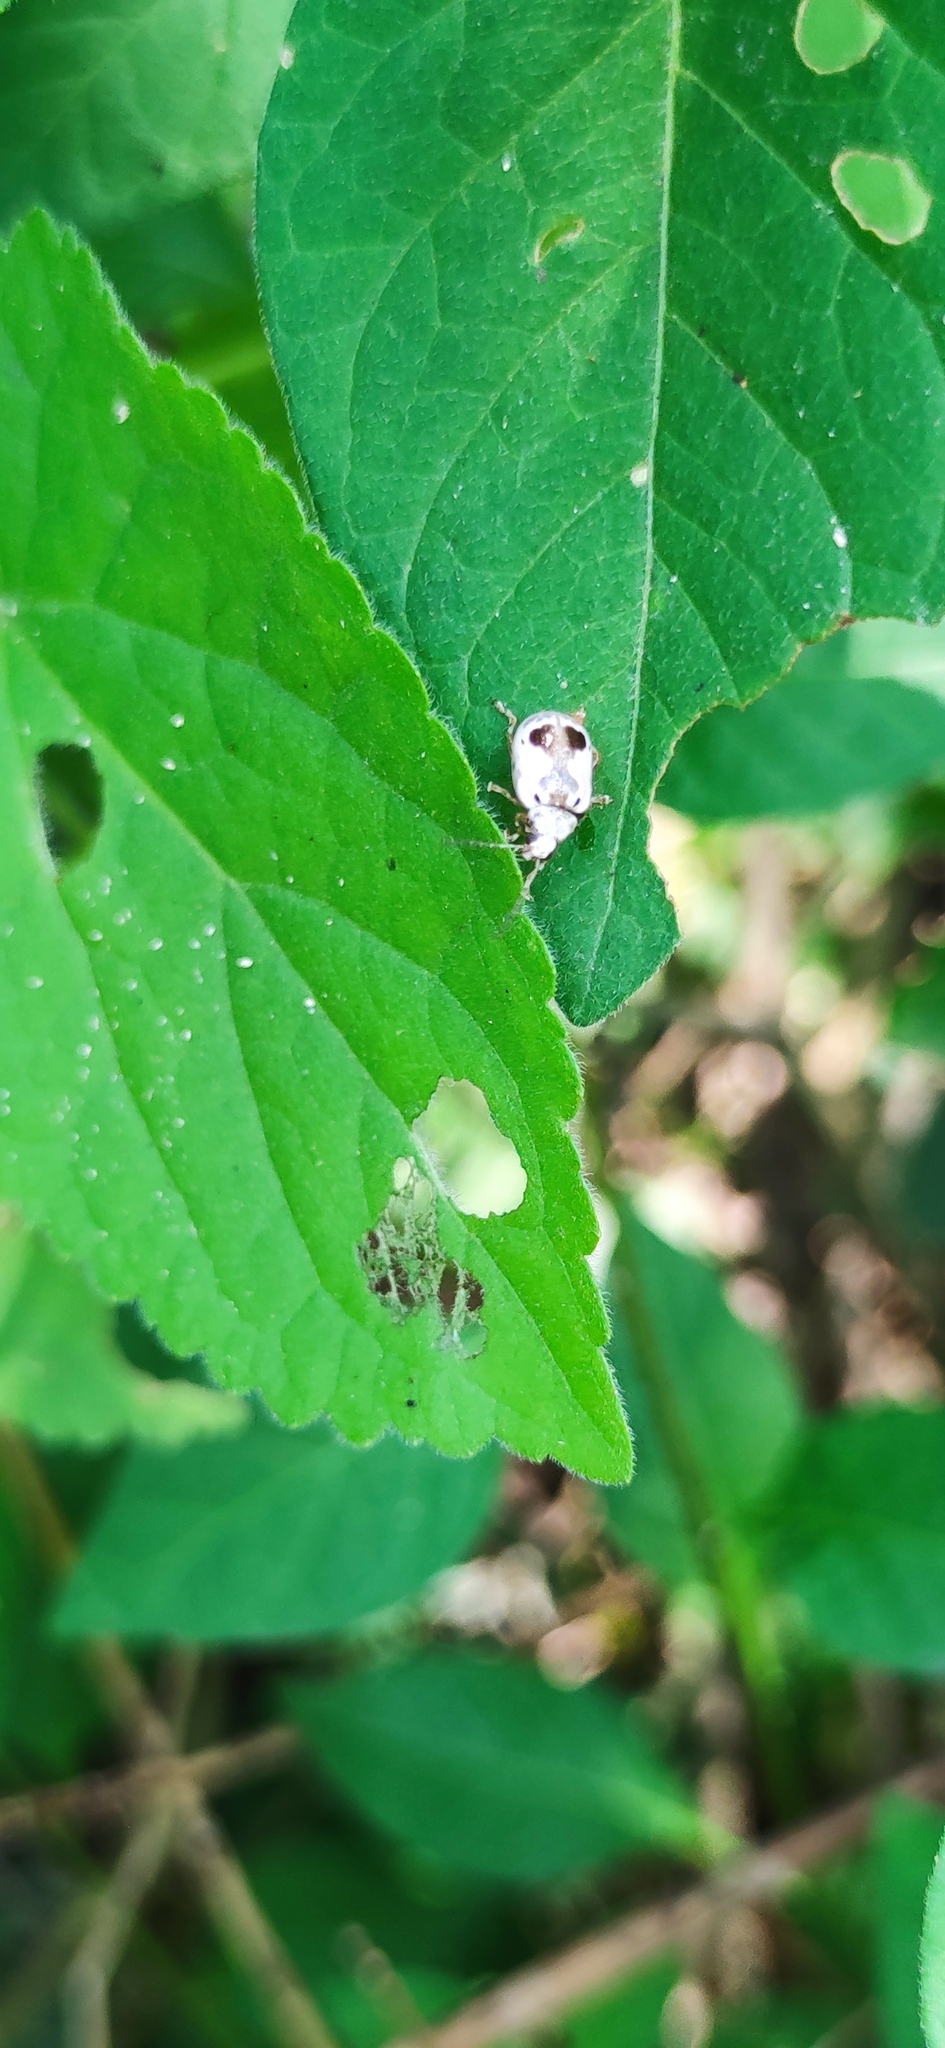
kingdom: Animalia
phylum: Arthropoda
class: Insecta
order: Coleoptera
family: Chrysomelidae
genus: Acrocyum
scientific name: Acrocyum
